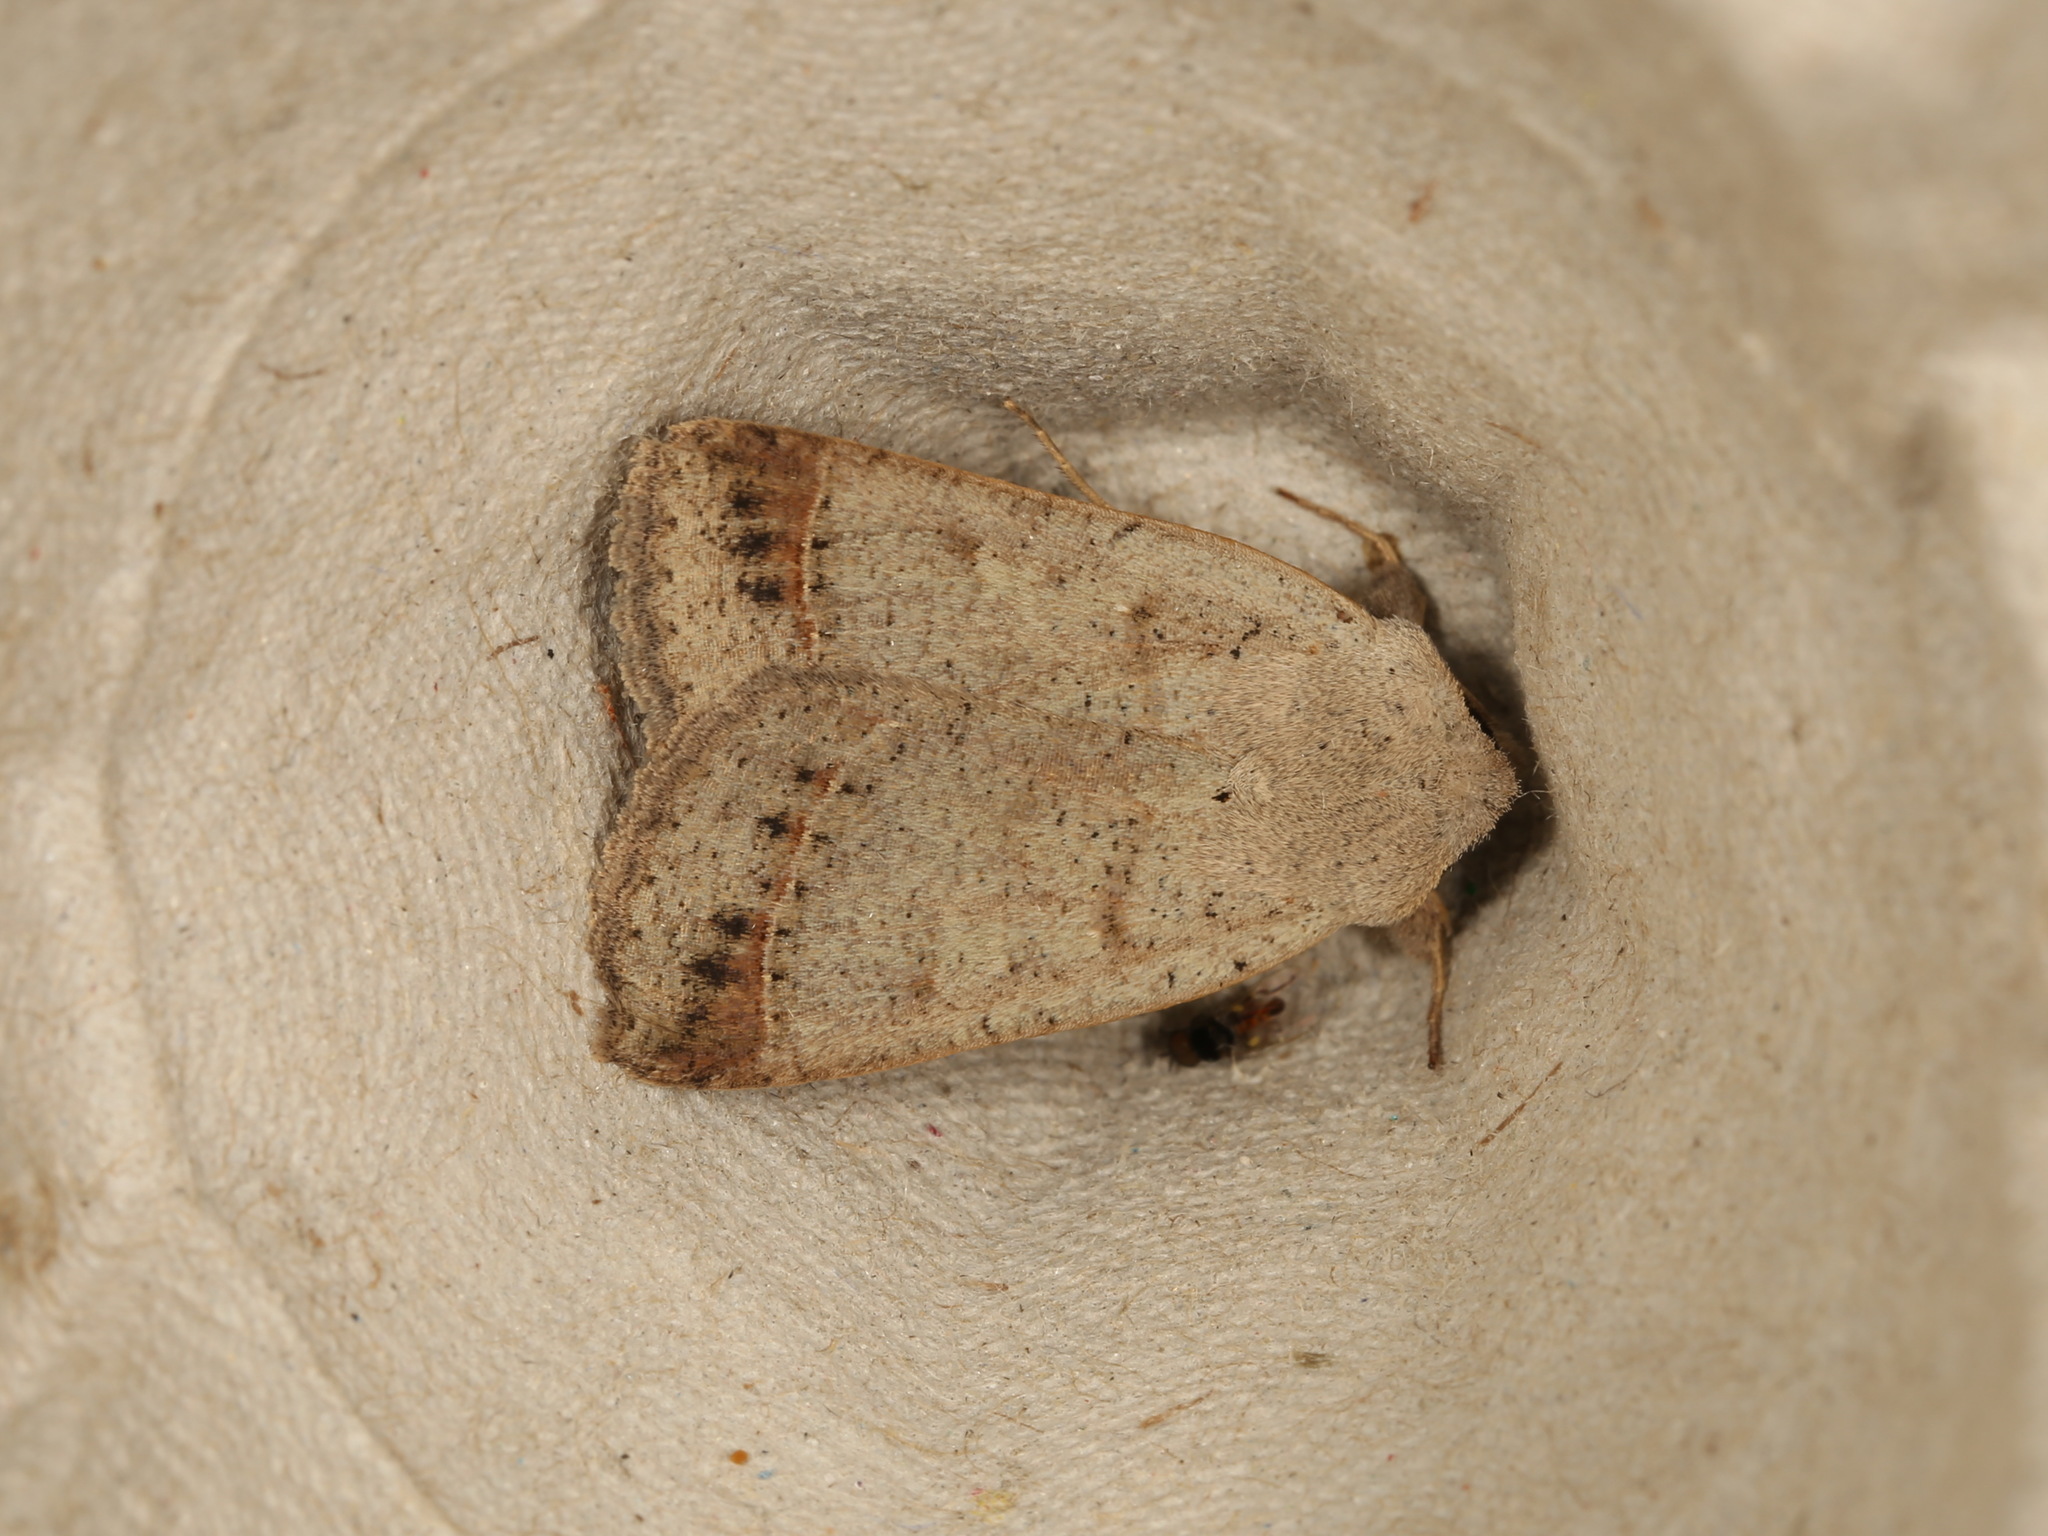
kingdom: Animalia
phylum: Arthropoda
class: Insecta
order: Lepidoptera
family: Erebidae
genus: Pantydia
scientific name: Pantydia sparsa
